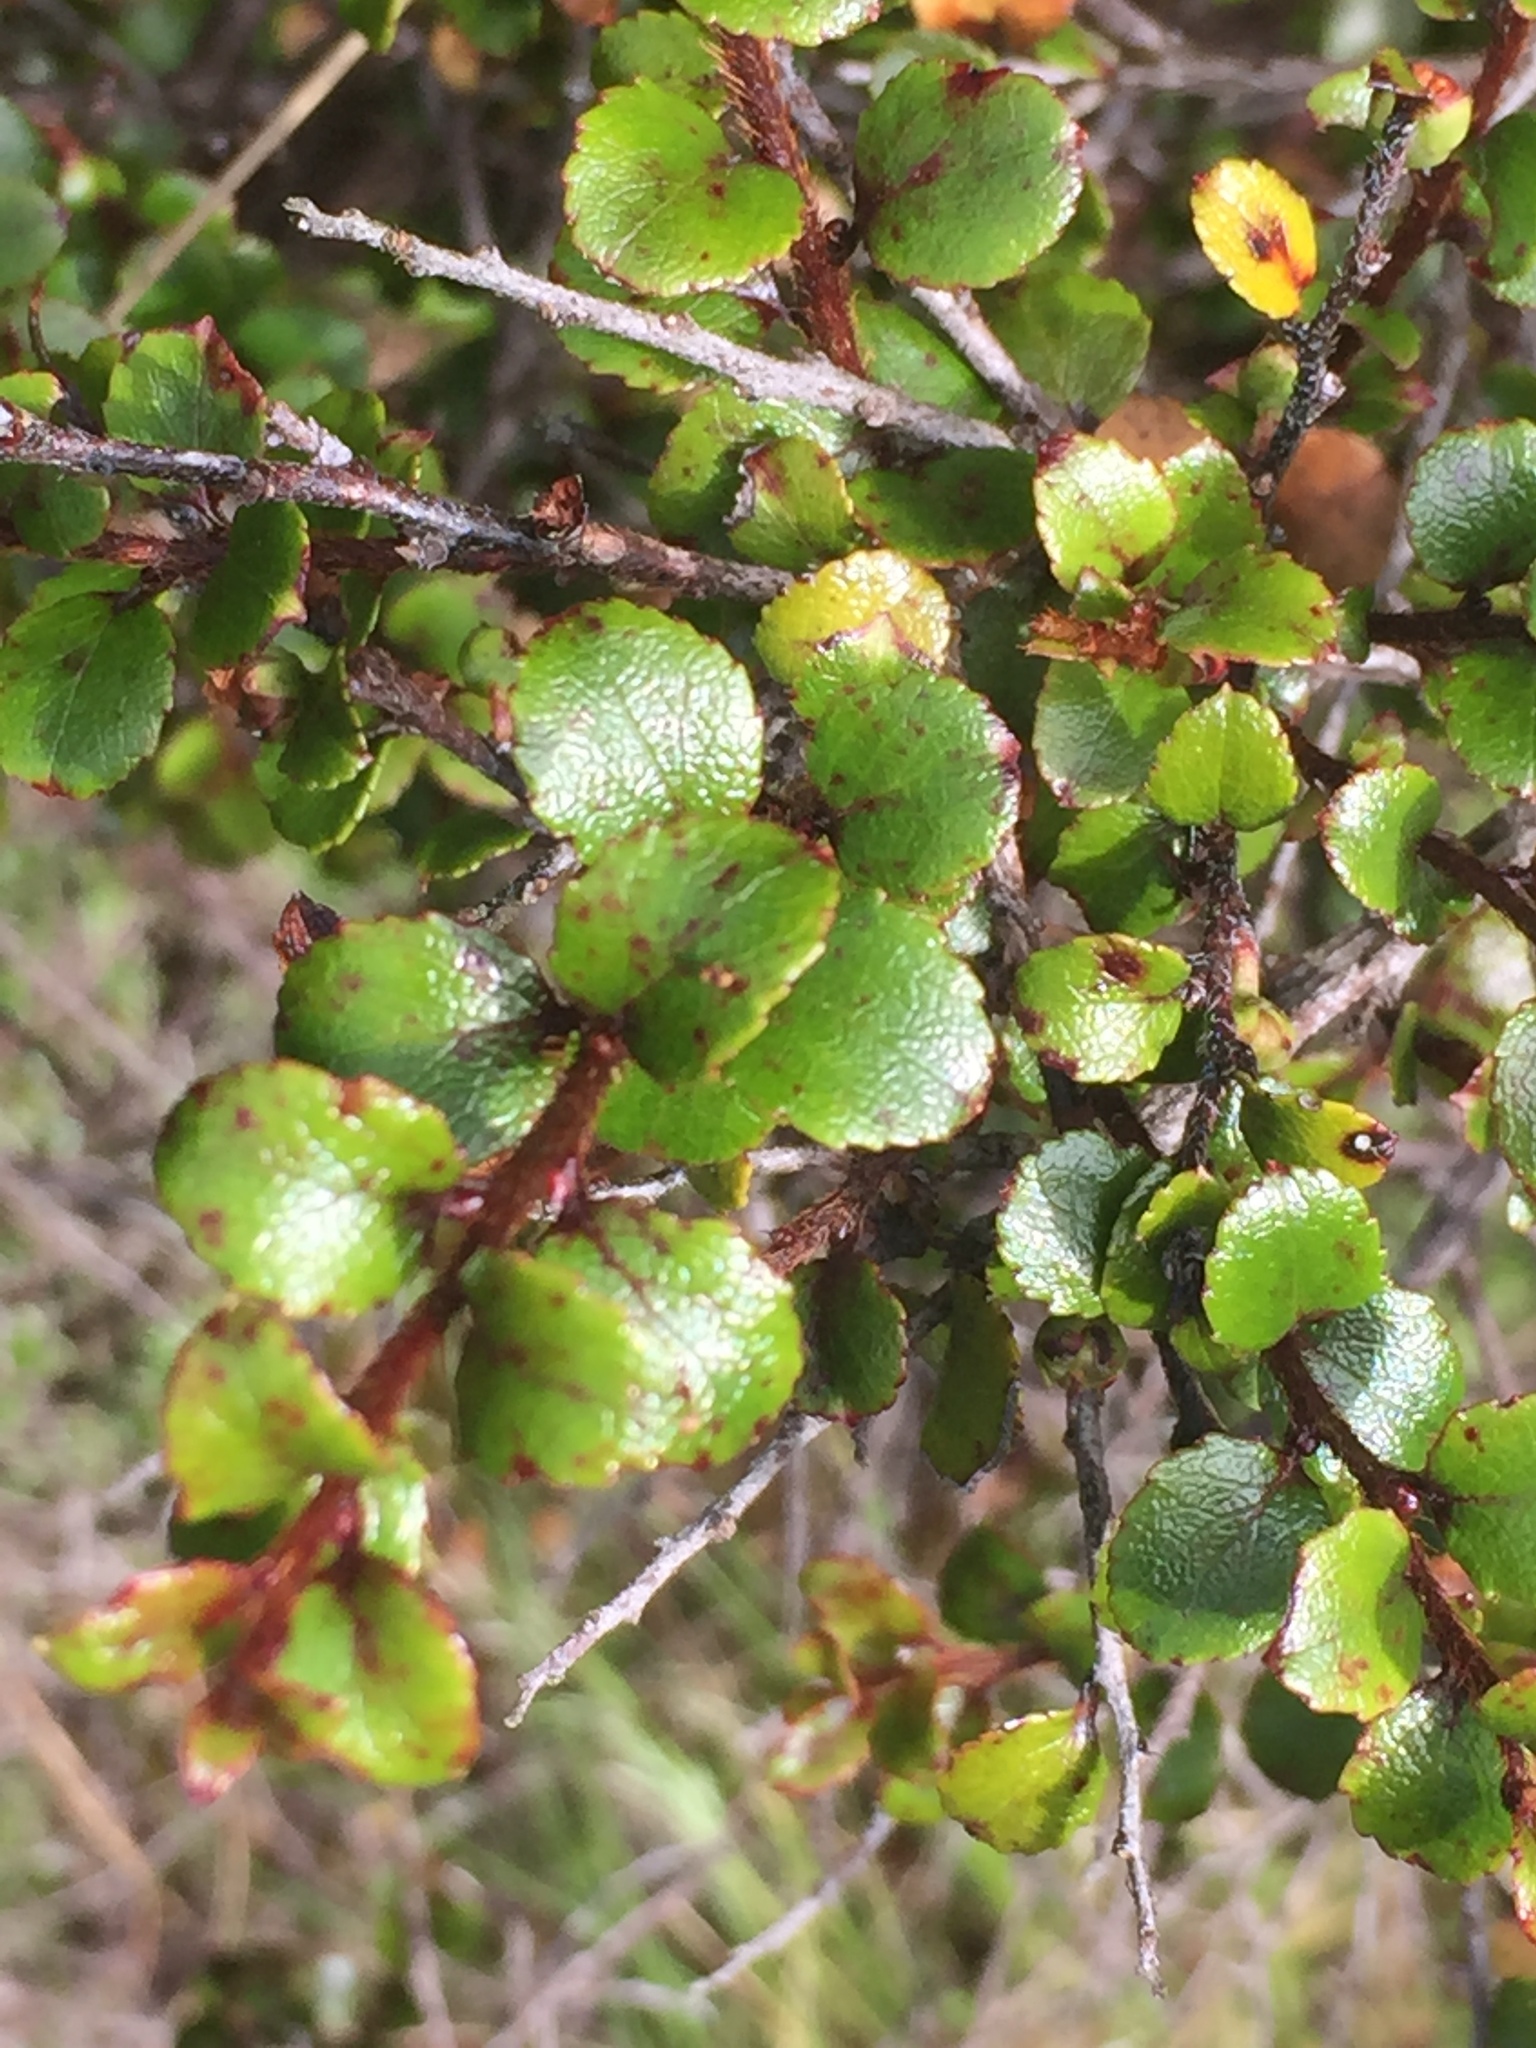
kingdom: Plantae
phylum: Tracheophyta
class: Magnoliopsida
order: Ericales
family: Ericaceae
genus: Gaultheria
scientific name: Gaultheria antipoda
